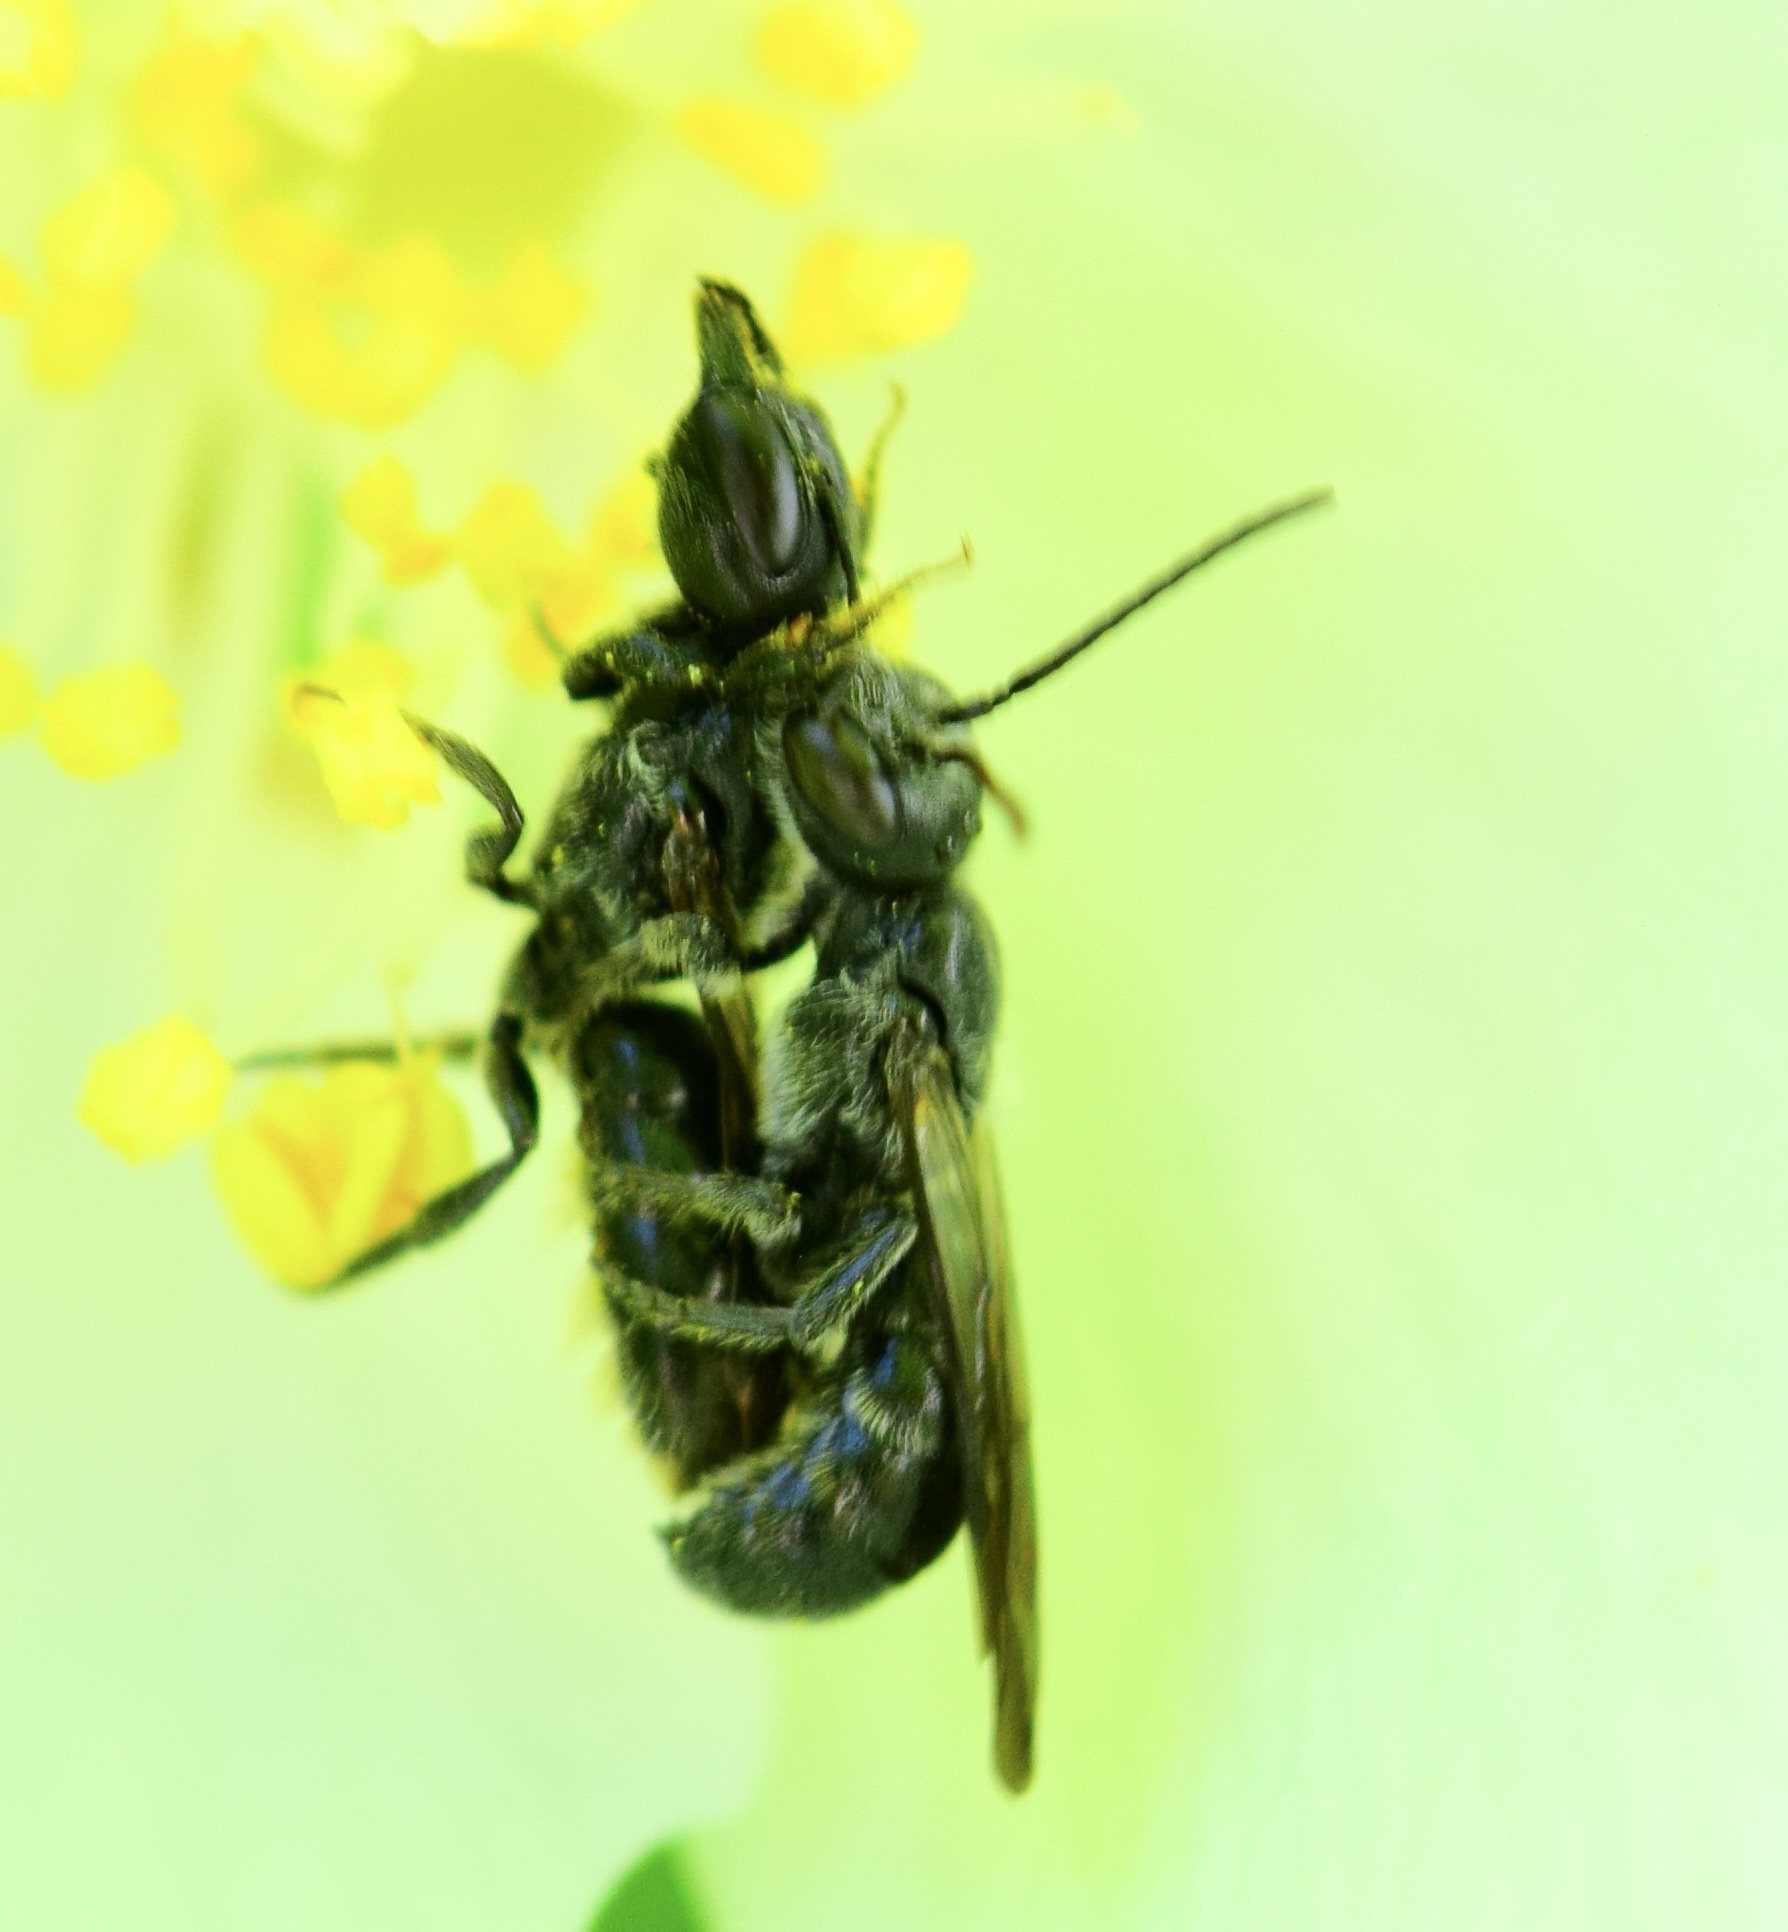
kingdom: Animalia
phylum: Arthropoda
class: Insecta
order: Hymenoptera
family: Megachilidae
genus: Chelostoma
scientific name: Chelostoma philadelphi
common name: Mock-orange scissor bee
